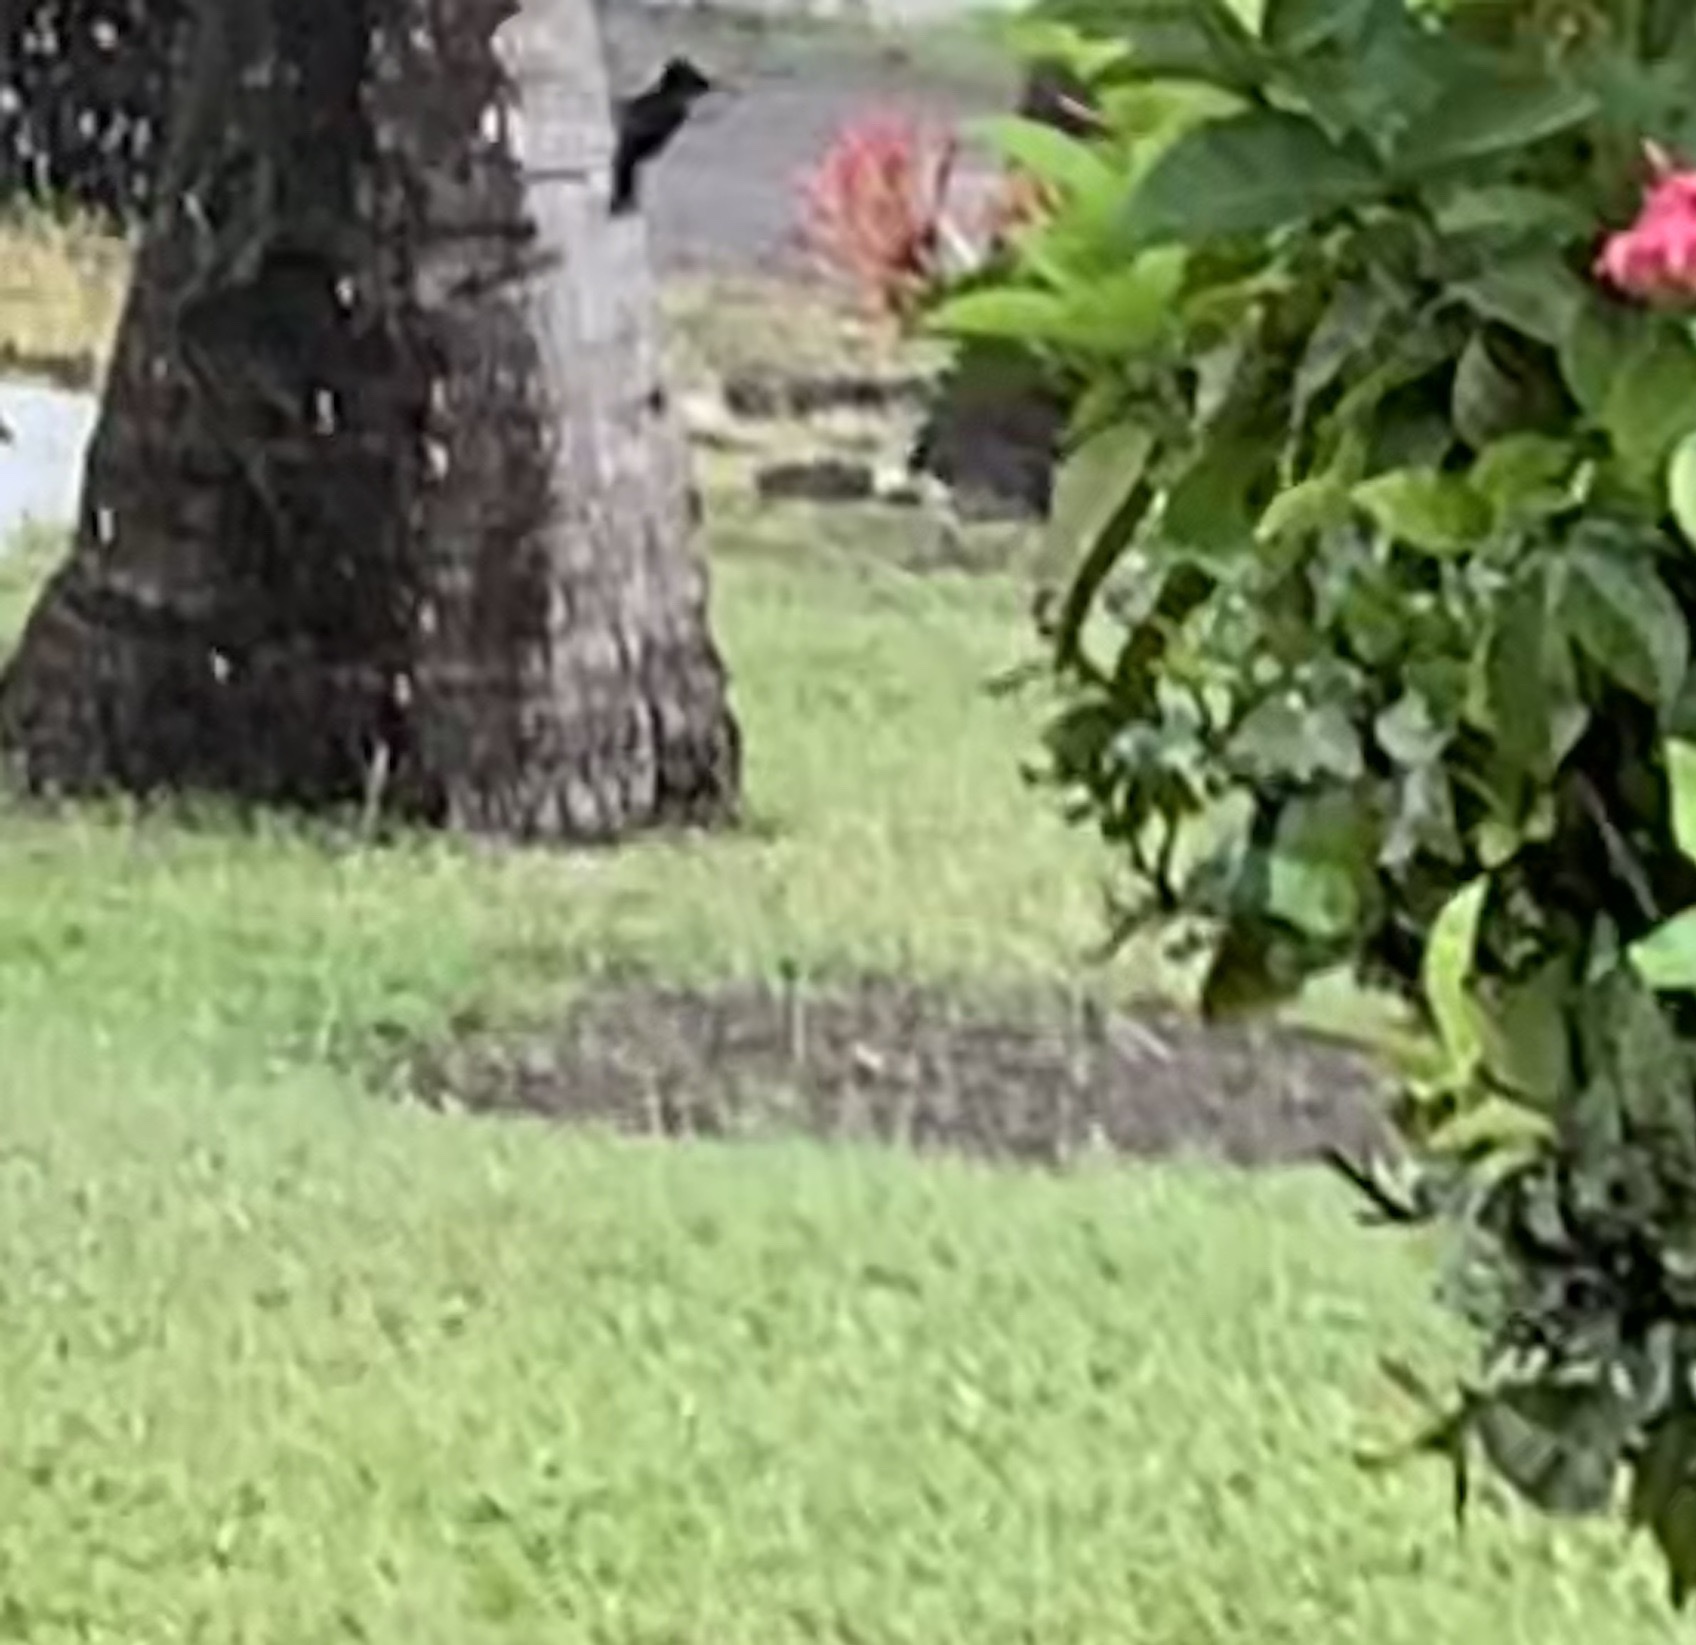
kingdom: Animalia
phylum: Chordata
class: Aves
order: Apodiformes
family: Trochilidae
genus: Orthorhyncus
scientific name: Orthorhyncus cristatus
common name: Antillean crested hummingbird
